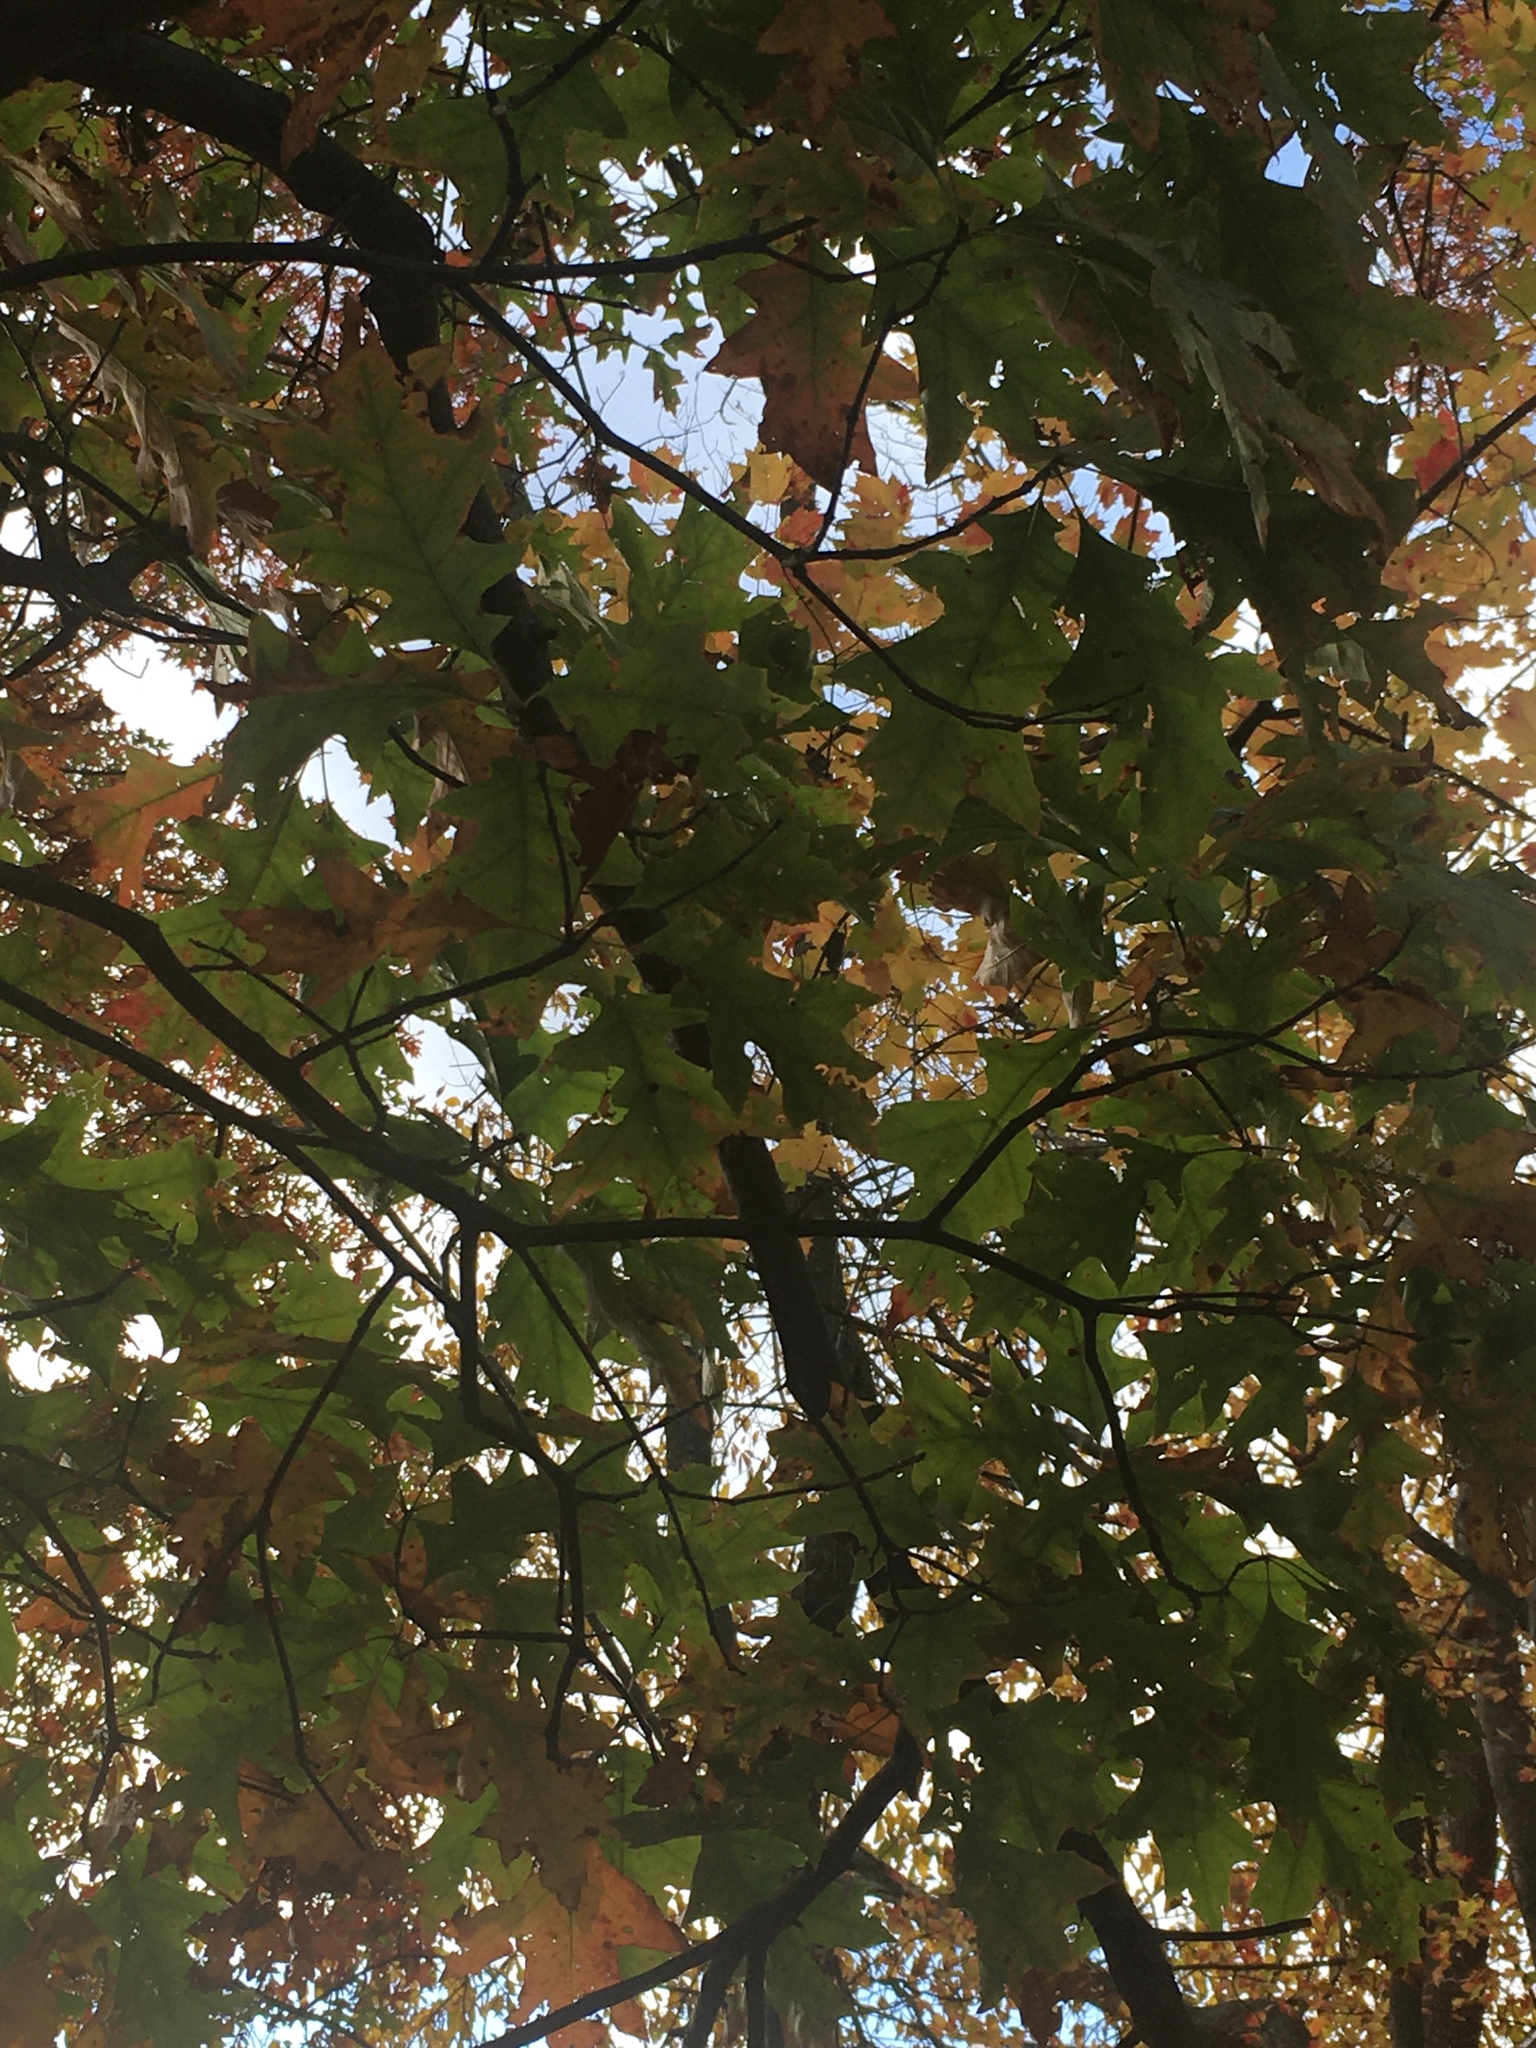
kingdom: Plantae
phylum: Tracheophyta
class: Magnoliopsida
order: Fagales
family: Fagaceae
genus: Quercus
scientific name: Quercus rubra
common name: Red oak
